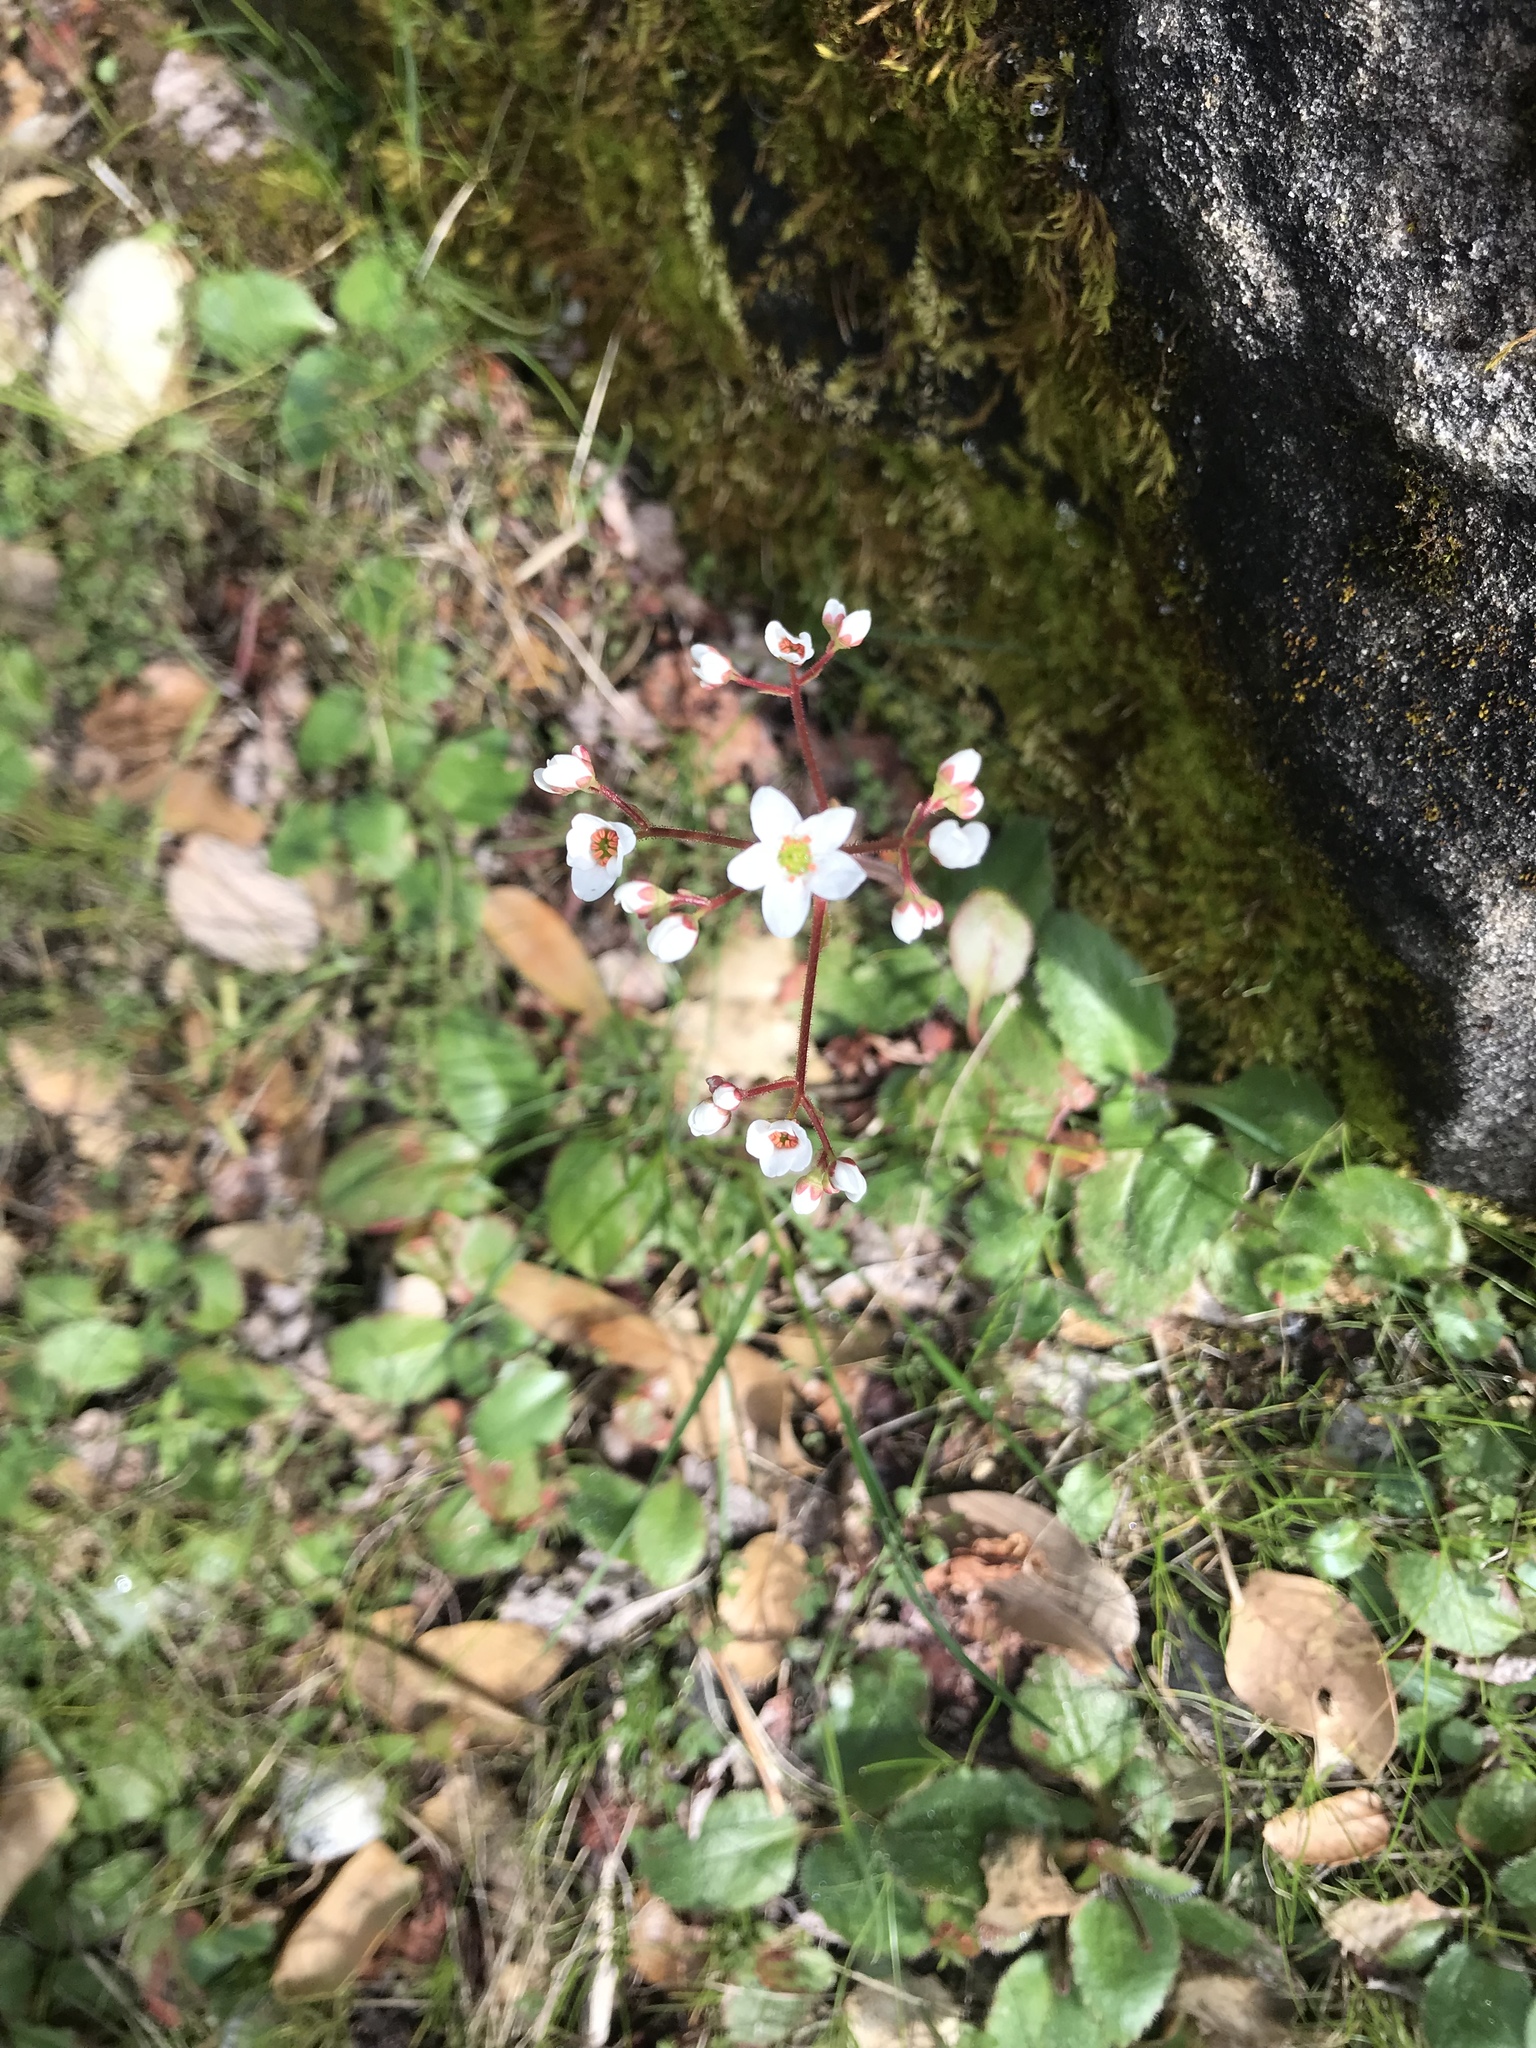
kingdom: Plantae
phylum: Tracheophyta
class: Magnoliopsida
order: Saxifragales
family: Saxifragaceae
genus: Micranthes
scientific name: Micranthes californica
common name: California saxifrage
